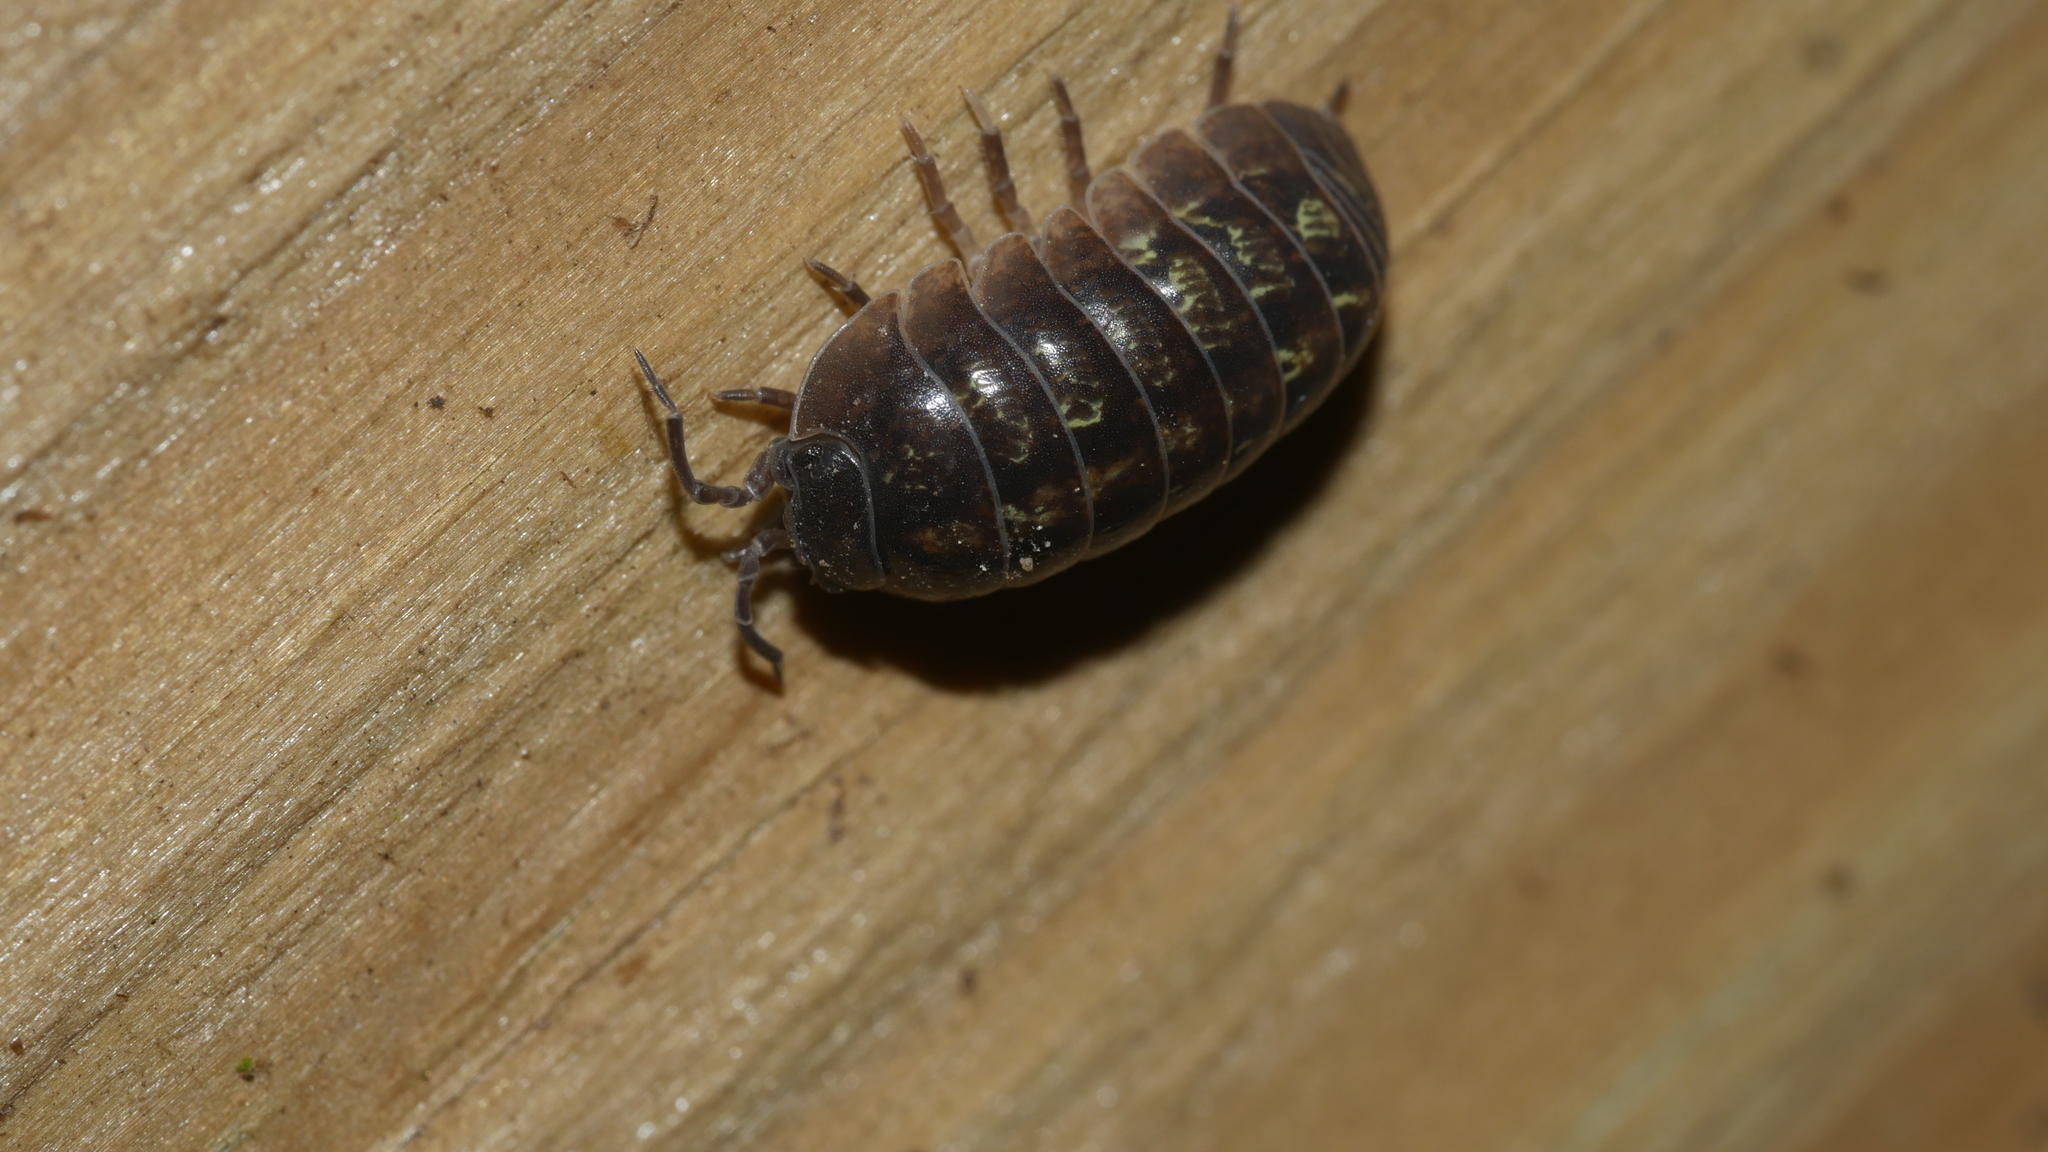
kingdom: Animalia
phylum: Arthropoda
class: Malacostraca
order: Isopoda
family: Armadillidiidae
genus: Armadillidium
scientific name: Armadillidium vulgare
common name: Common pill woodlouse
